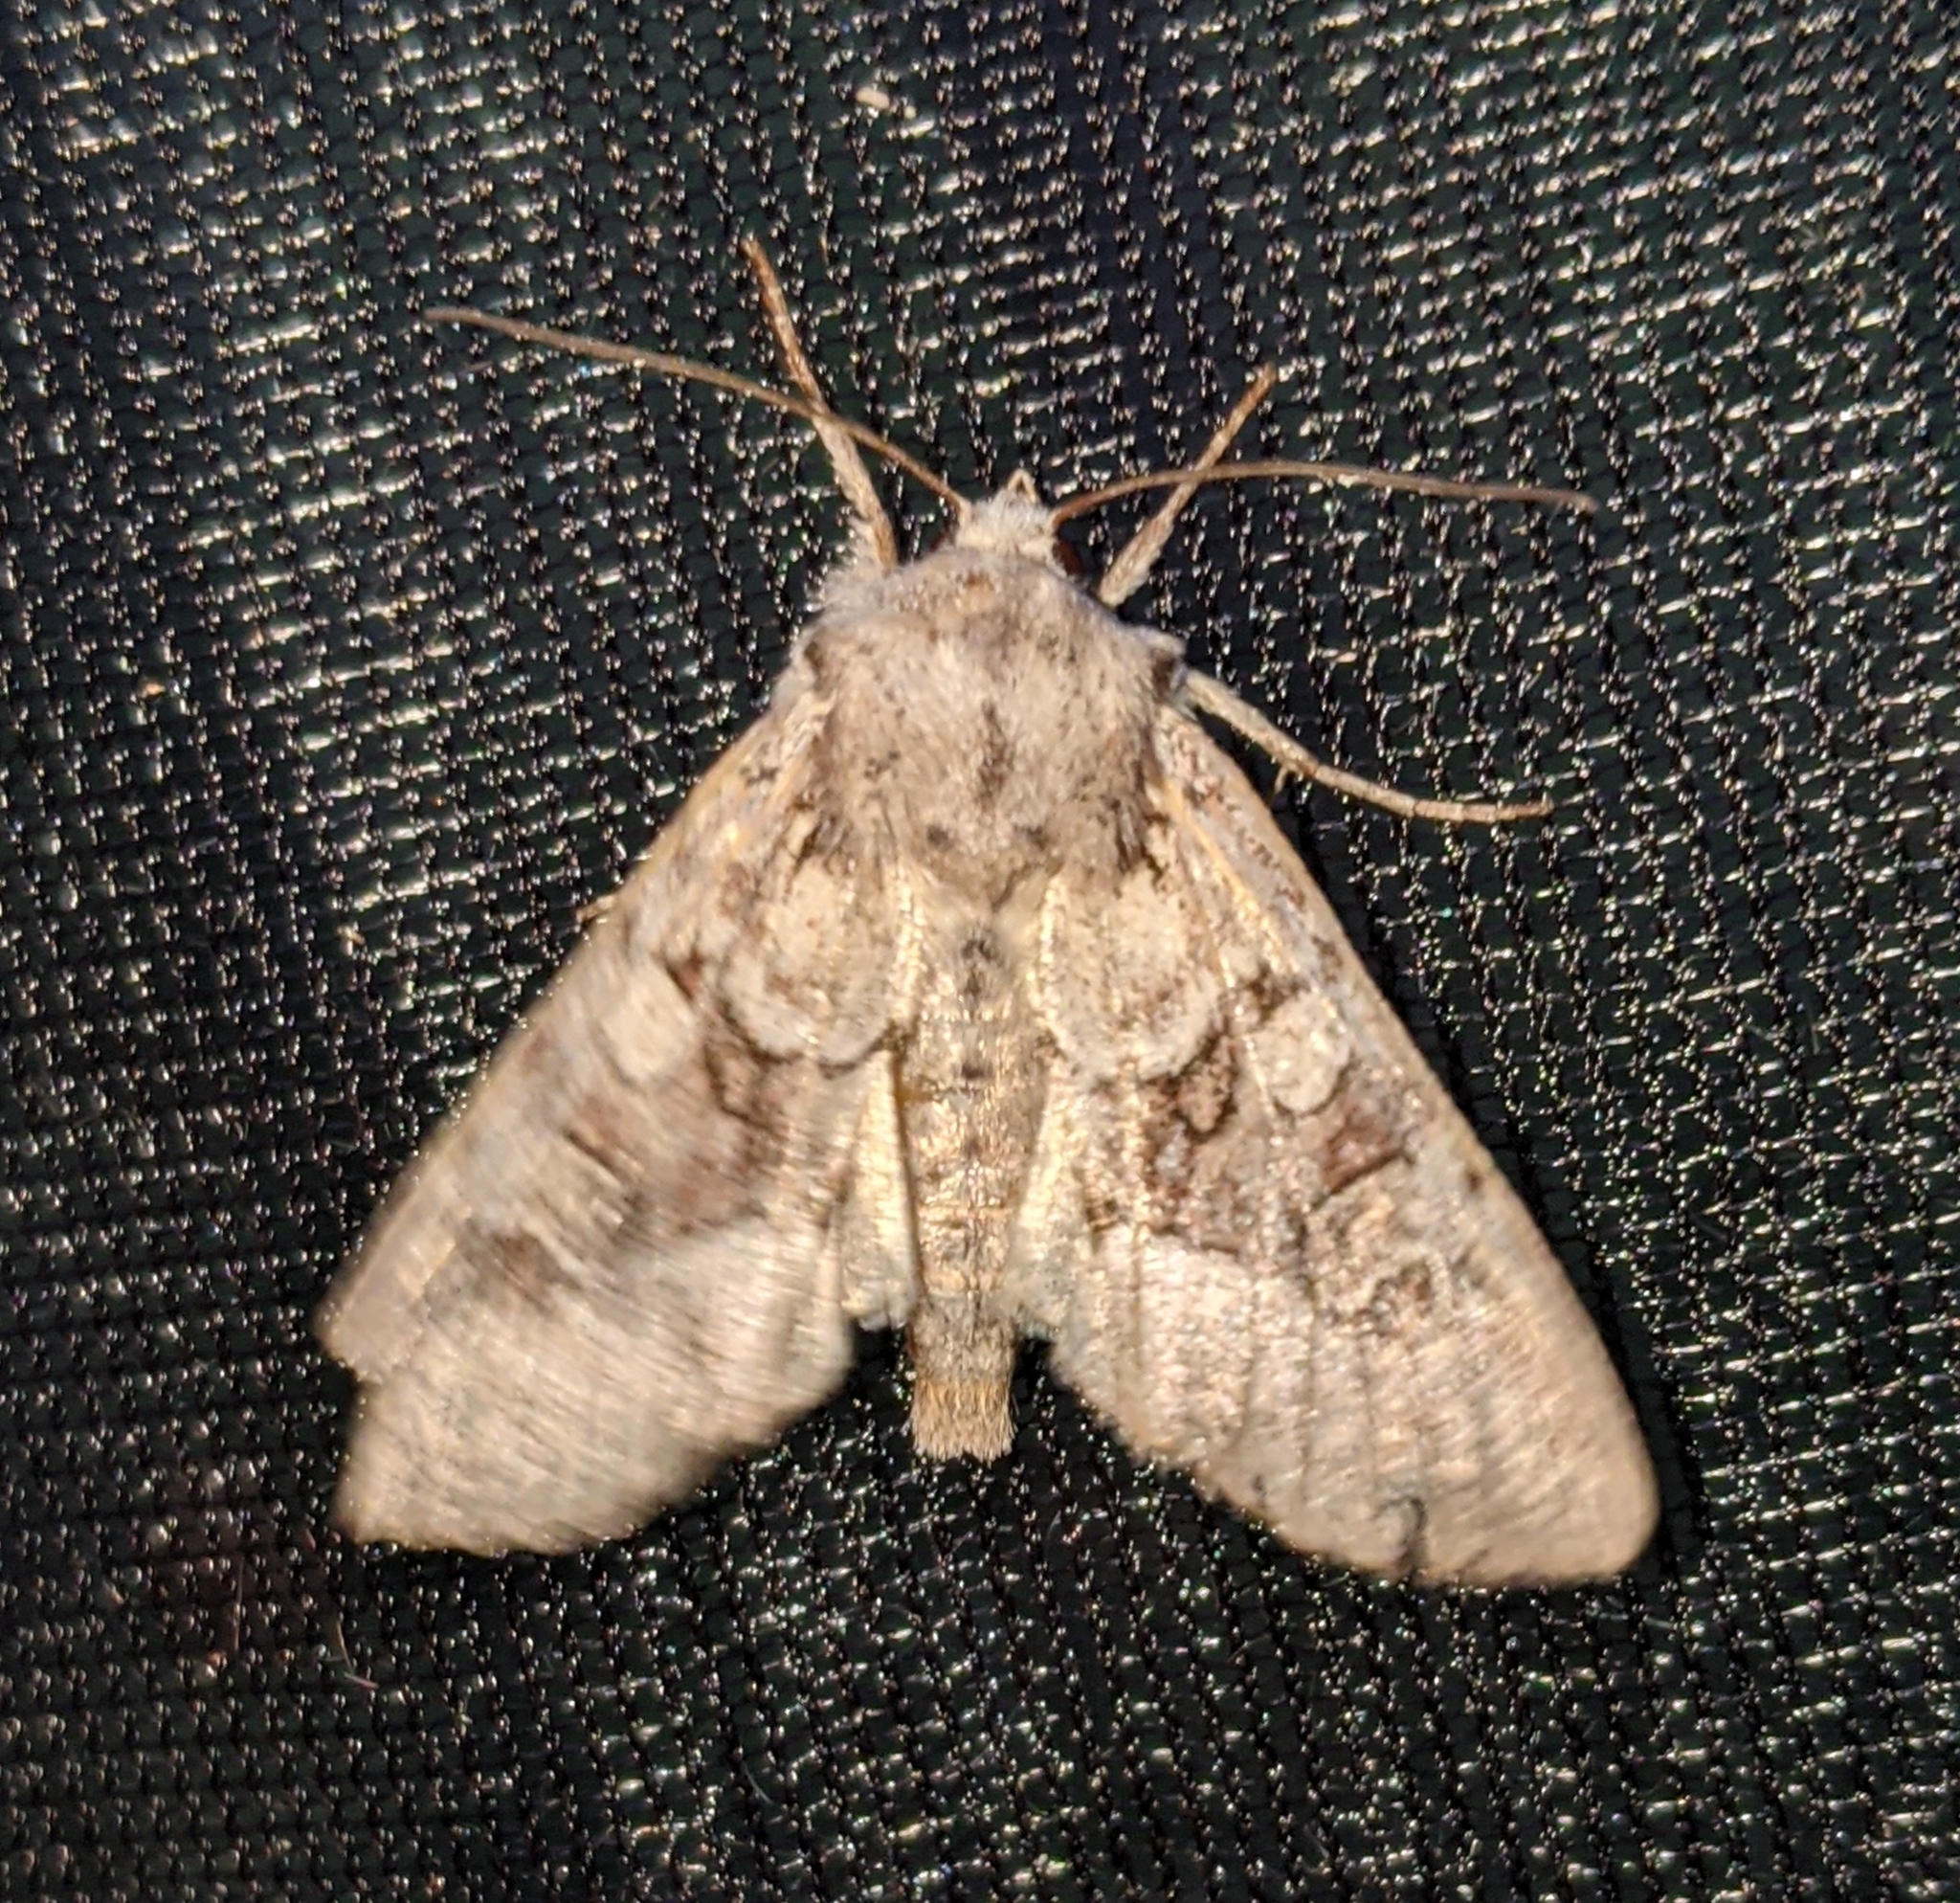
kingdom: Animalia
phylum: Arthropoda
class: Insecta
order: Lepidoptera
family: Noctuidae
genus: Apamea
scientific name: Apamea sordens
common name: Rustic shoulder-knot
